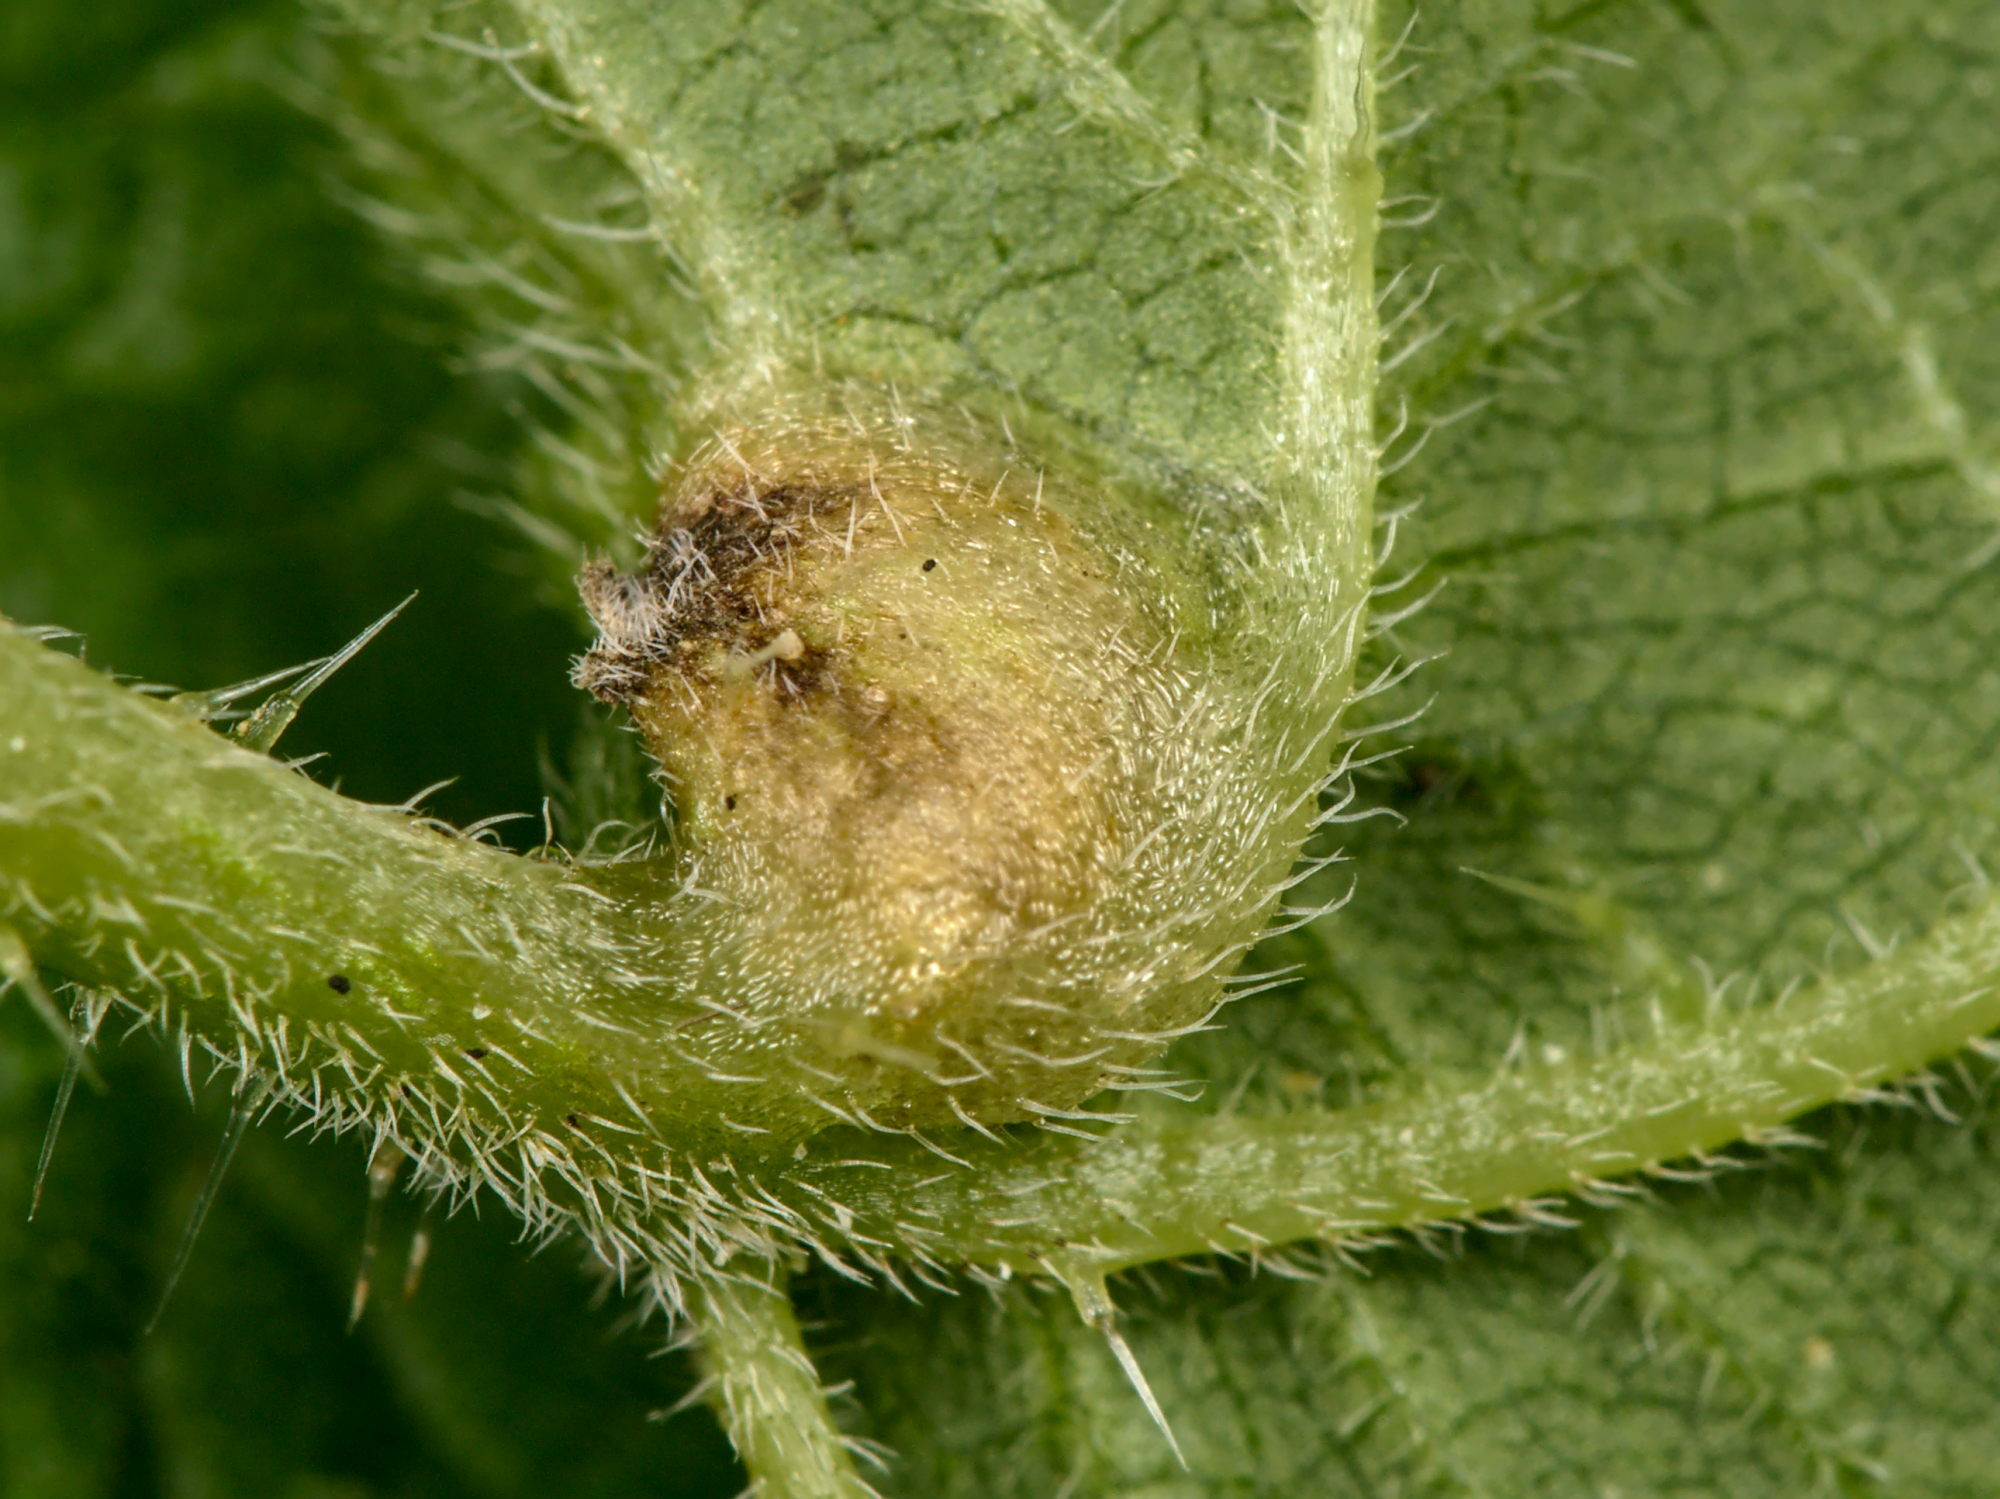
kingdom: Animalia
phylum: Arthropoda
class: Insecta
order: Diptera
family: Cecidomyiidae
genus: Dasineura
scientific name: Dasineura urticae
